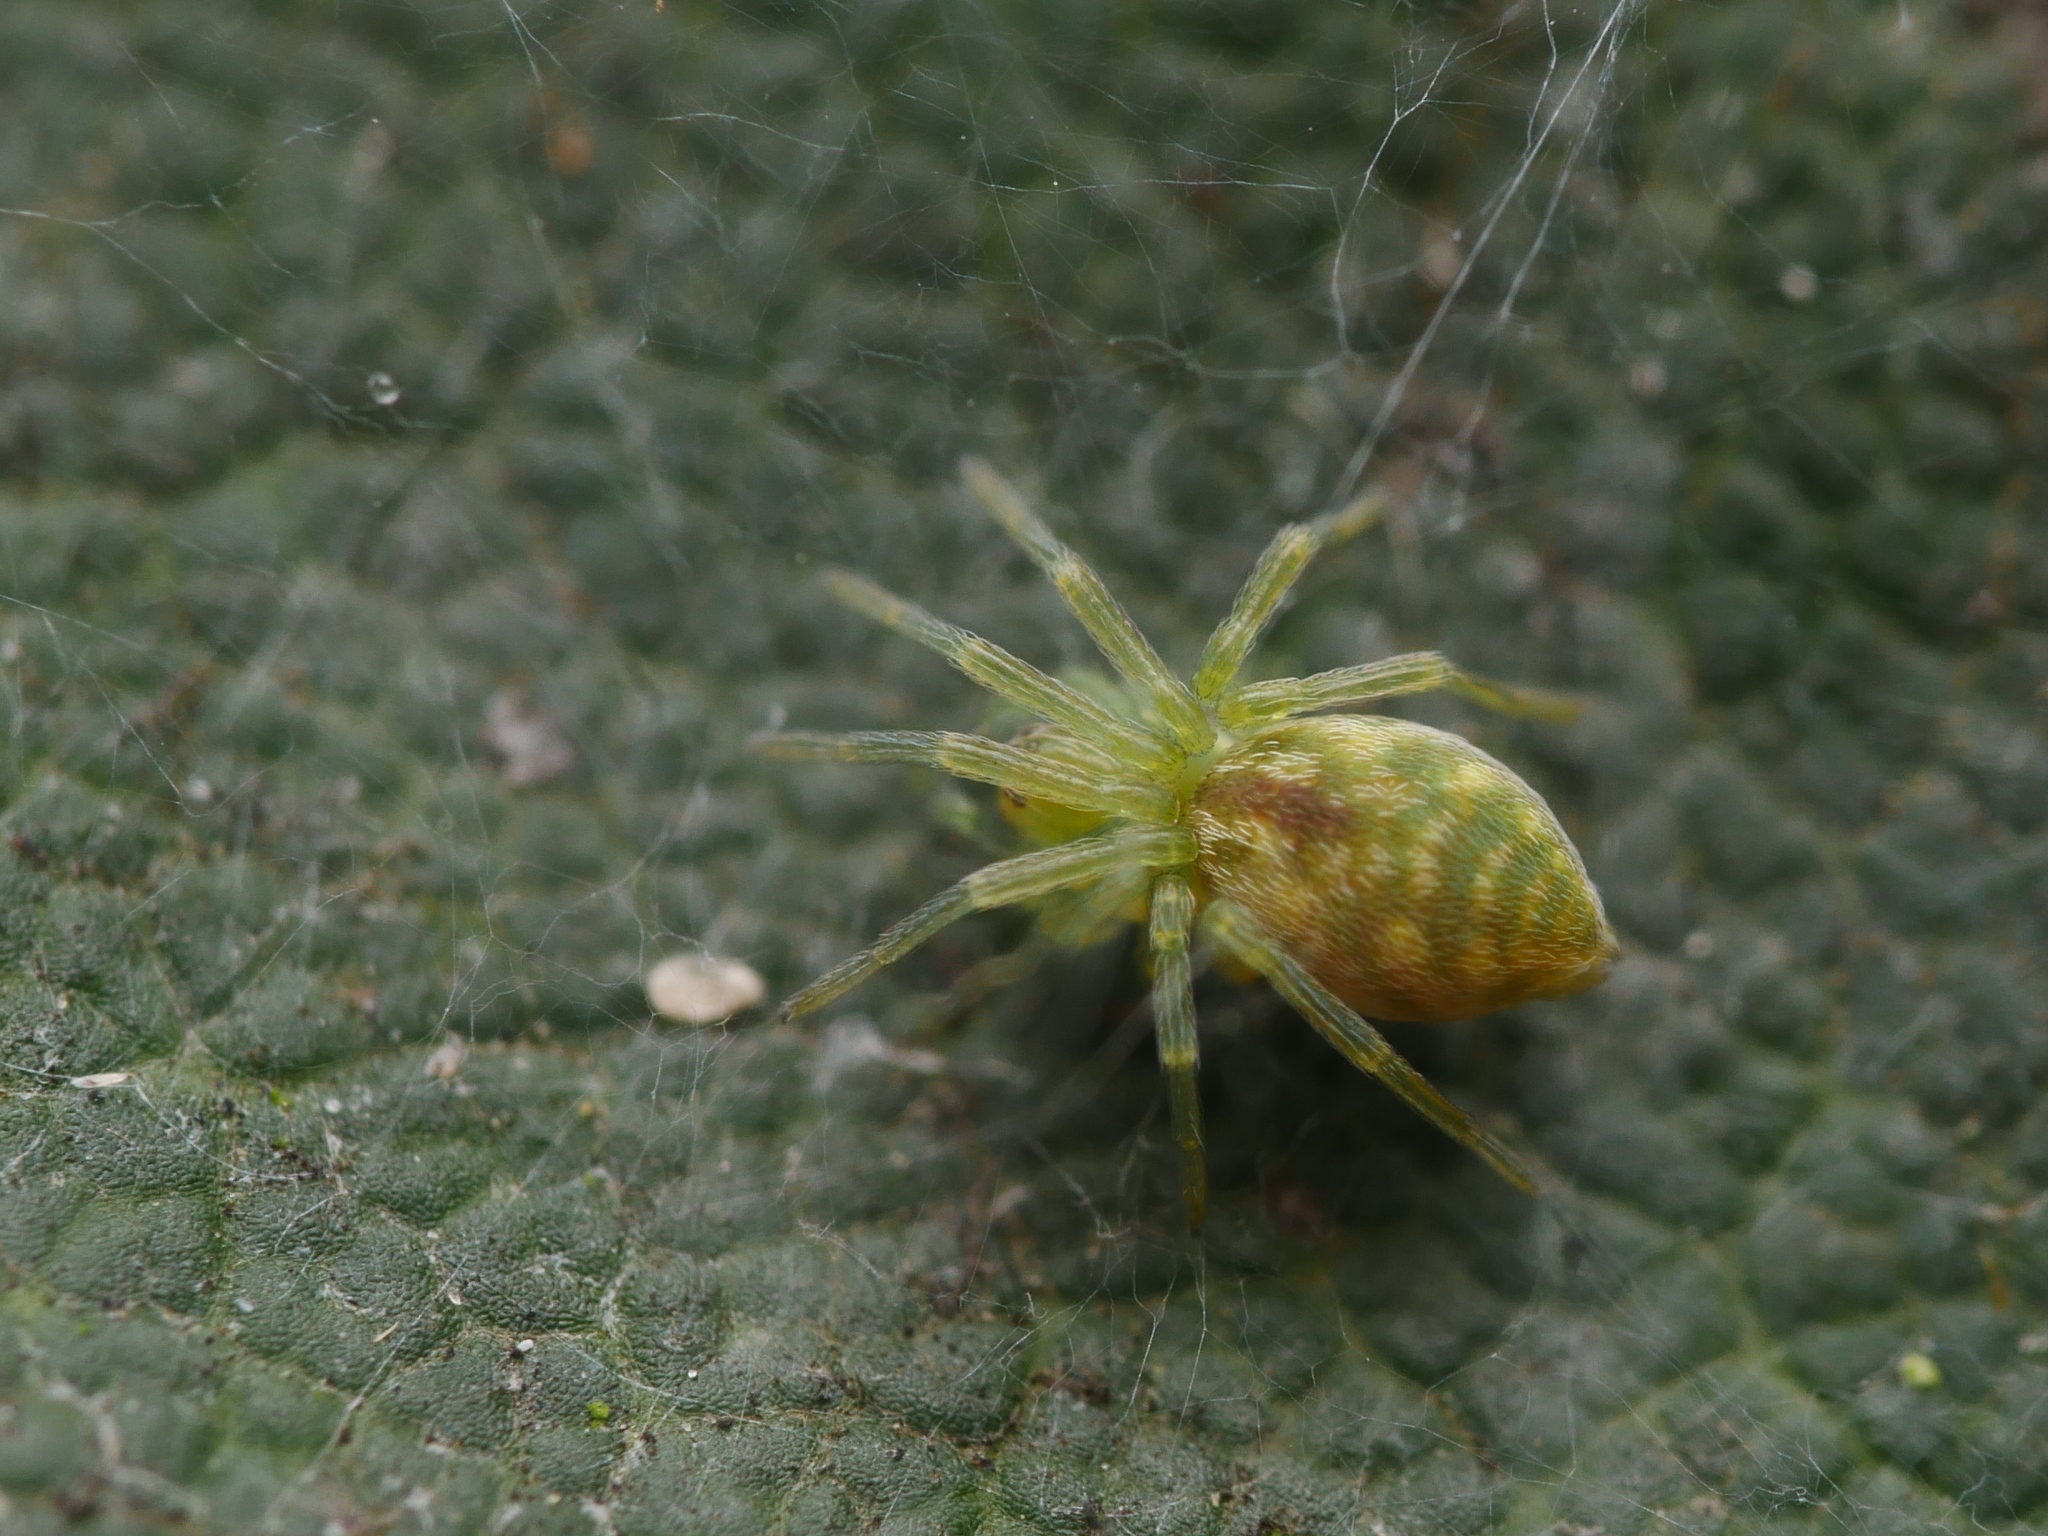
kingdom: Animalia
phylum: Arthropoda
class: Arachnida
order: Araneae
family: Dictynidae
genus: Nigma
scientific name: Nigma walckenaeri
